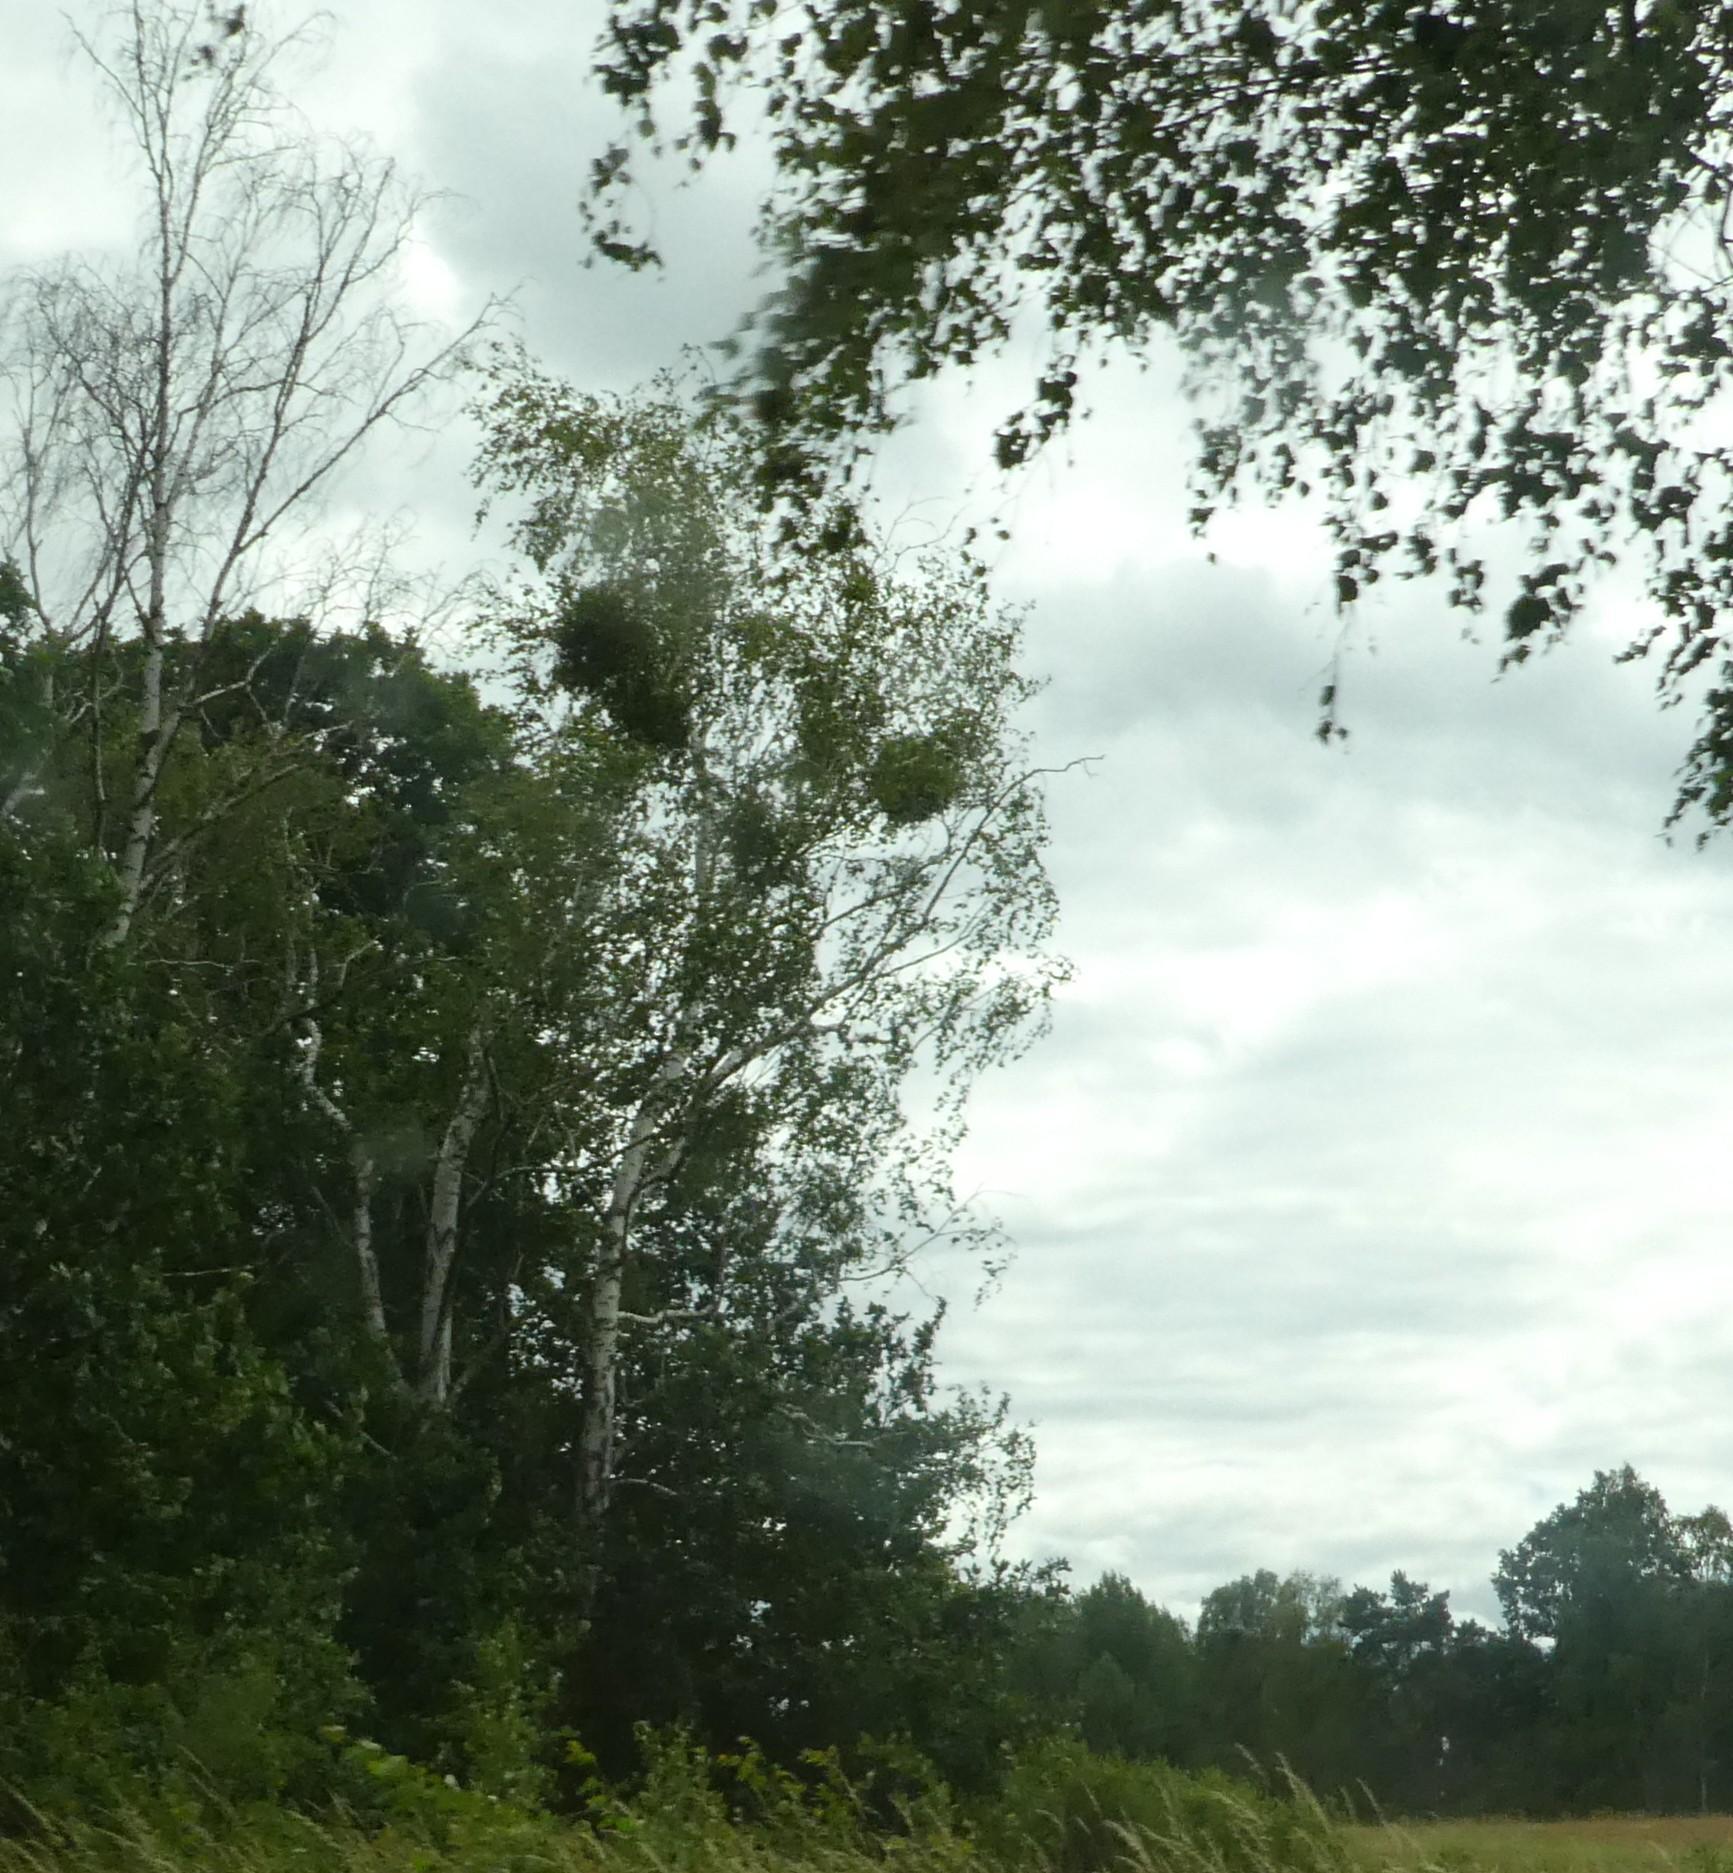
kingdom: Plantae
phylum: Tracheophyta
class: Magnoliopsida
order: Santalales
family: Viscaceae
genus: Viscum
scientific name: Viscum album
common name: Mistletoe
